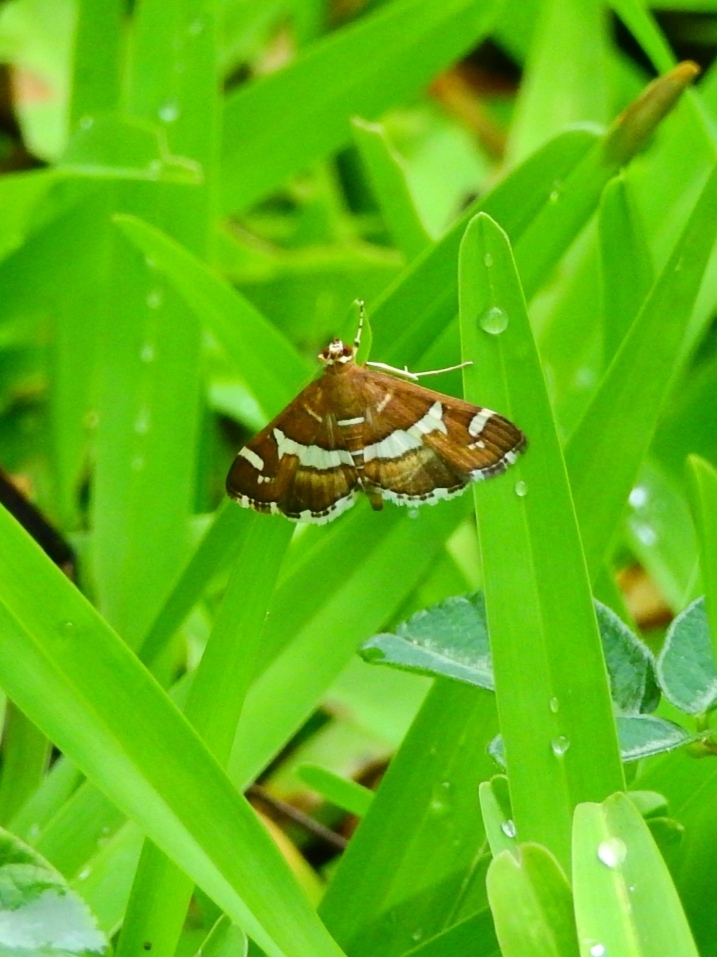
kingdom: Animalia
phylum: Arthropoda
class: Insecta
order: Lepidoptera
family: Crambidae
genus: Spoladea
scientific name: Spoladea recurvalis
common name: Beet webworm moth
